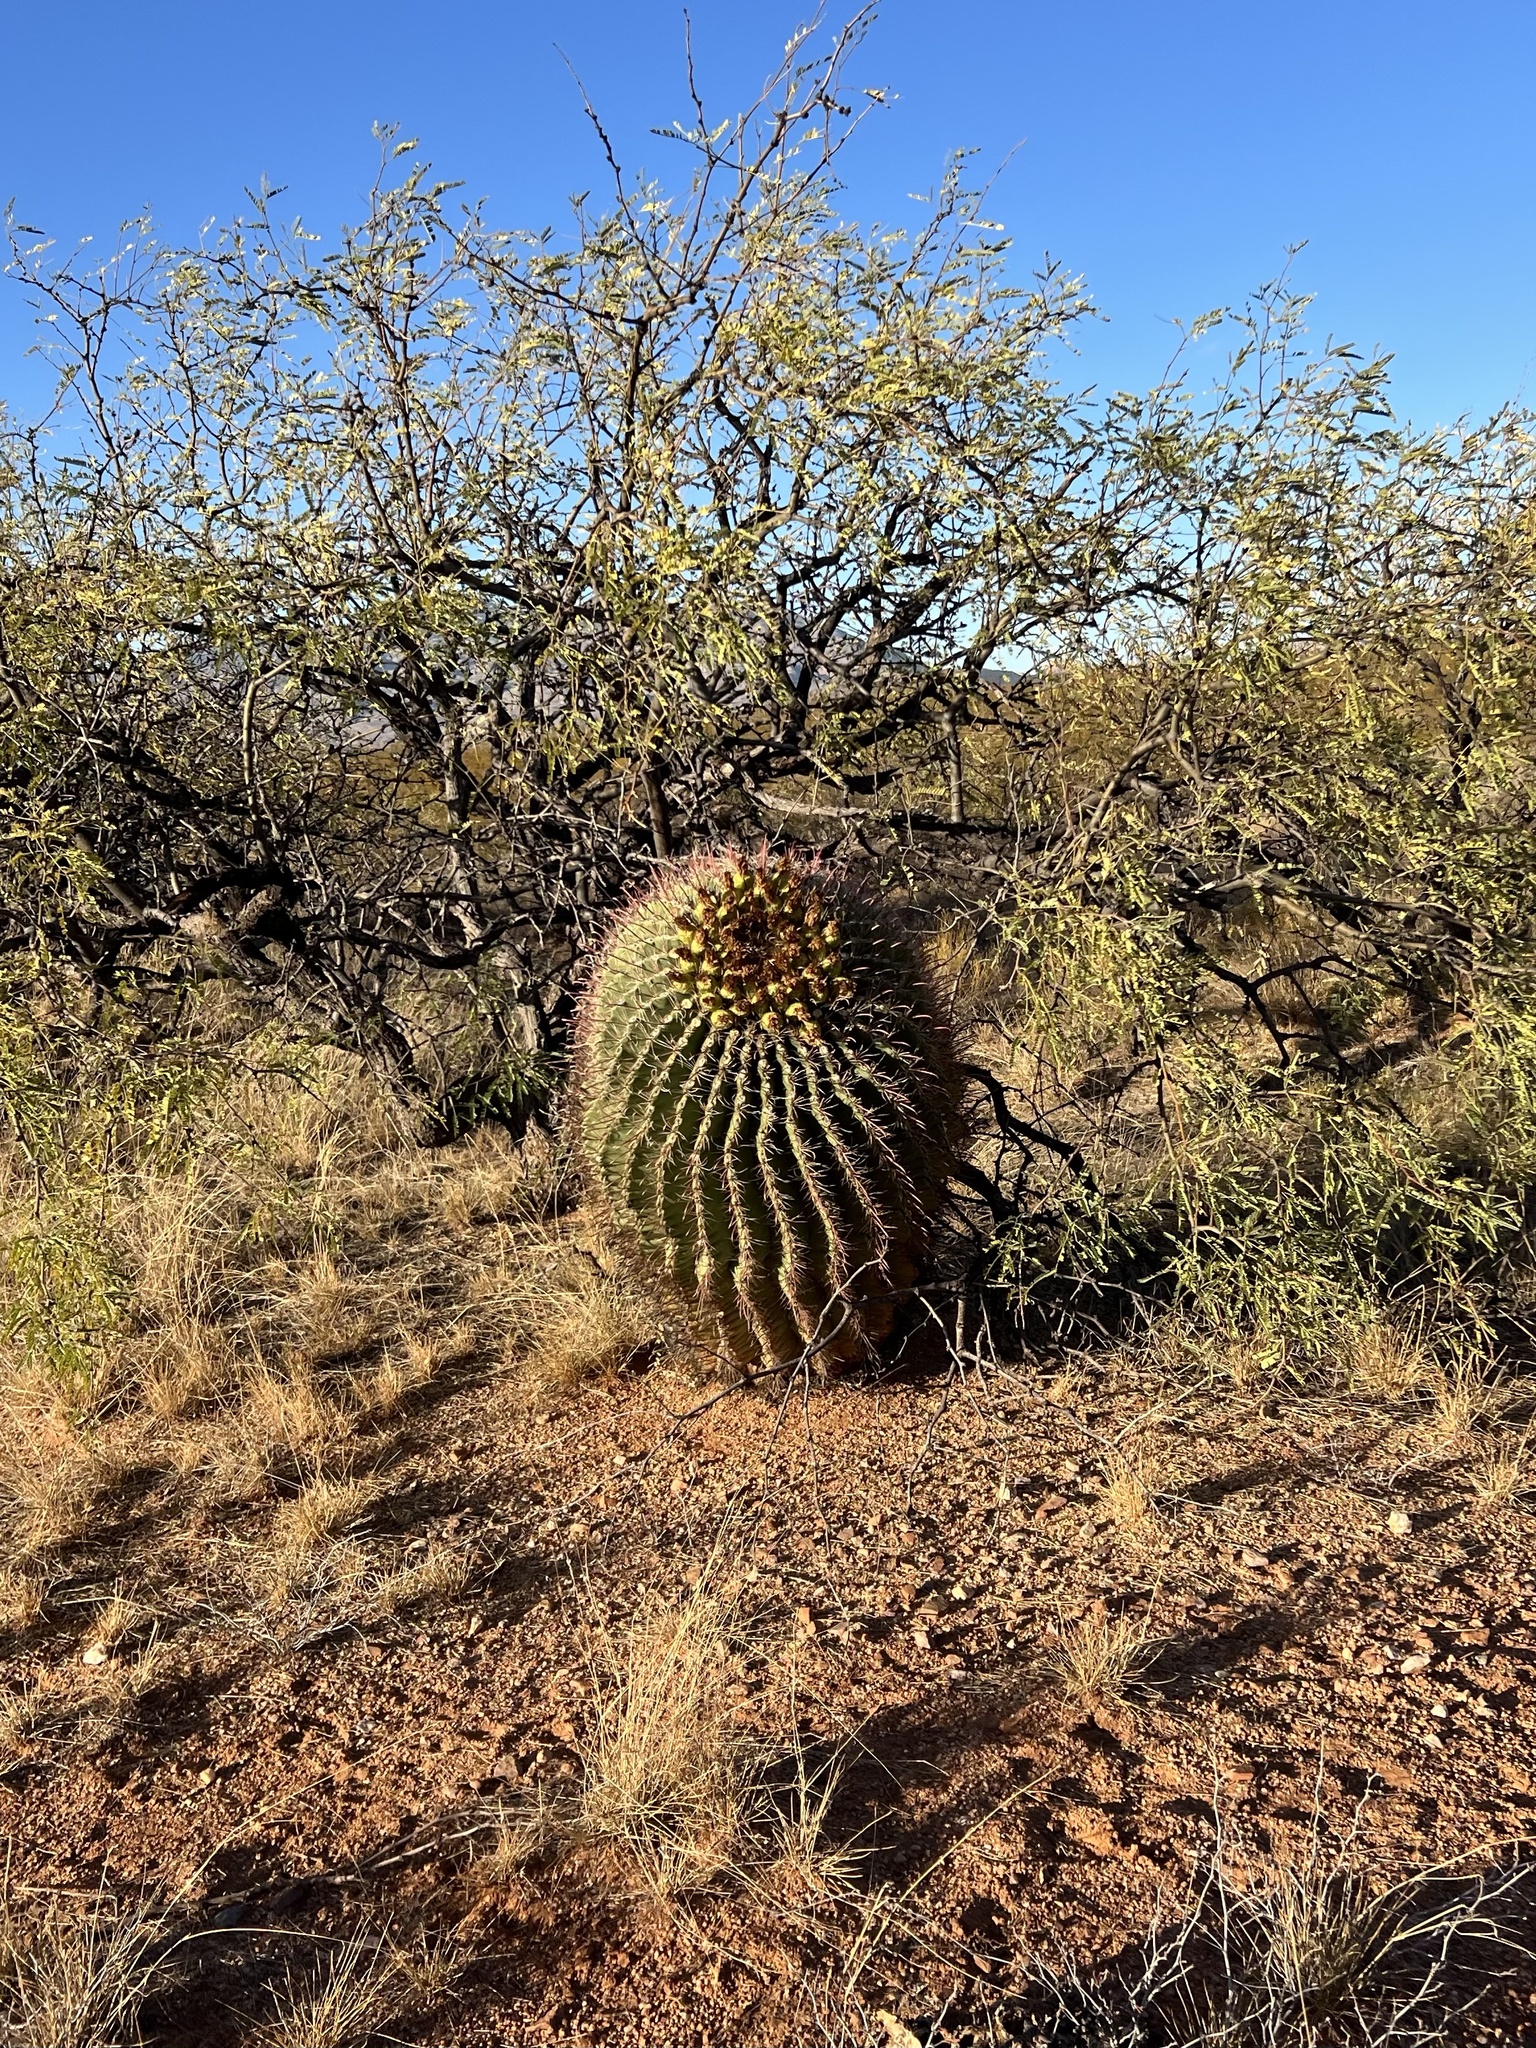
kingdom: Plantae
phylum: Tracheophyta
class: Magnoliopsida
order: Caryophyllales
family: Cactaceae
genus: Ferocactus
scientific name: Ferocactus wislizeni
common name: Candy barrel cactus
